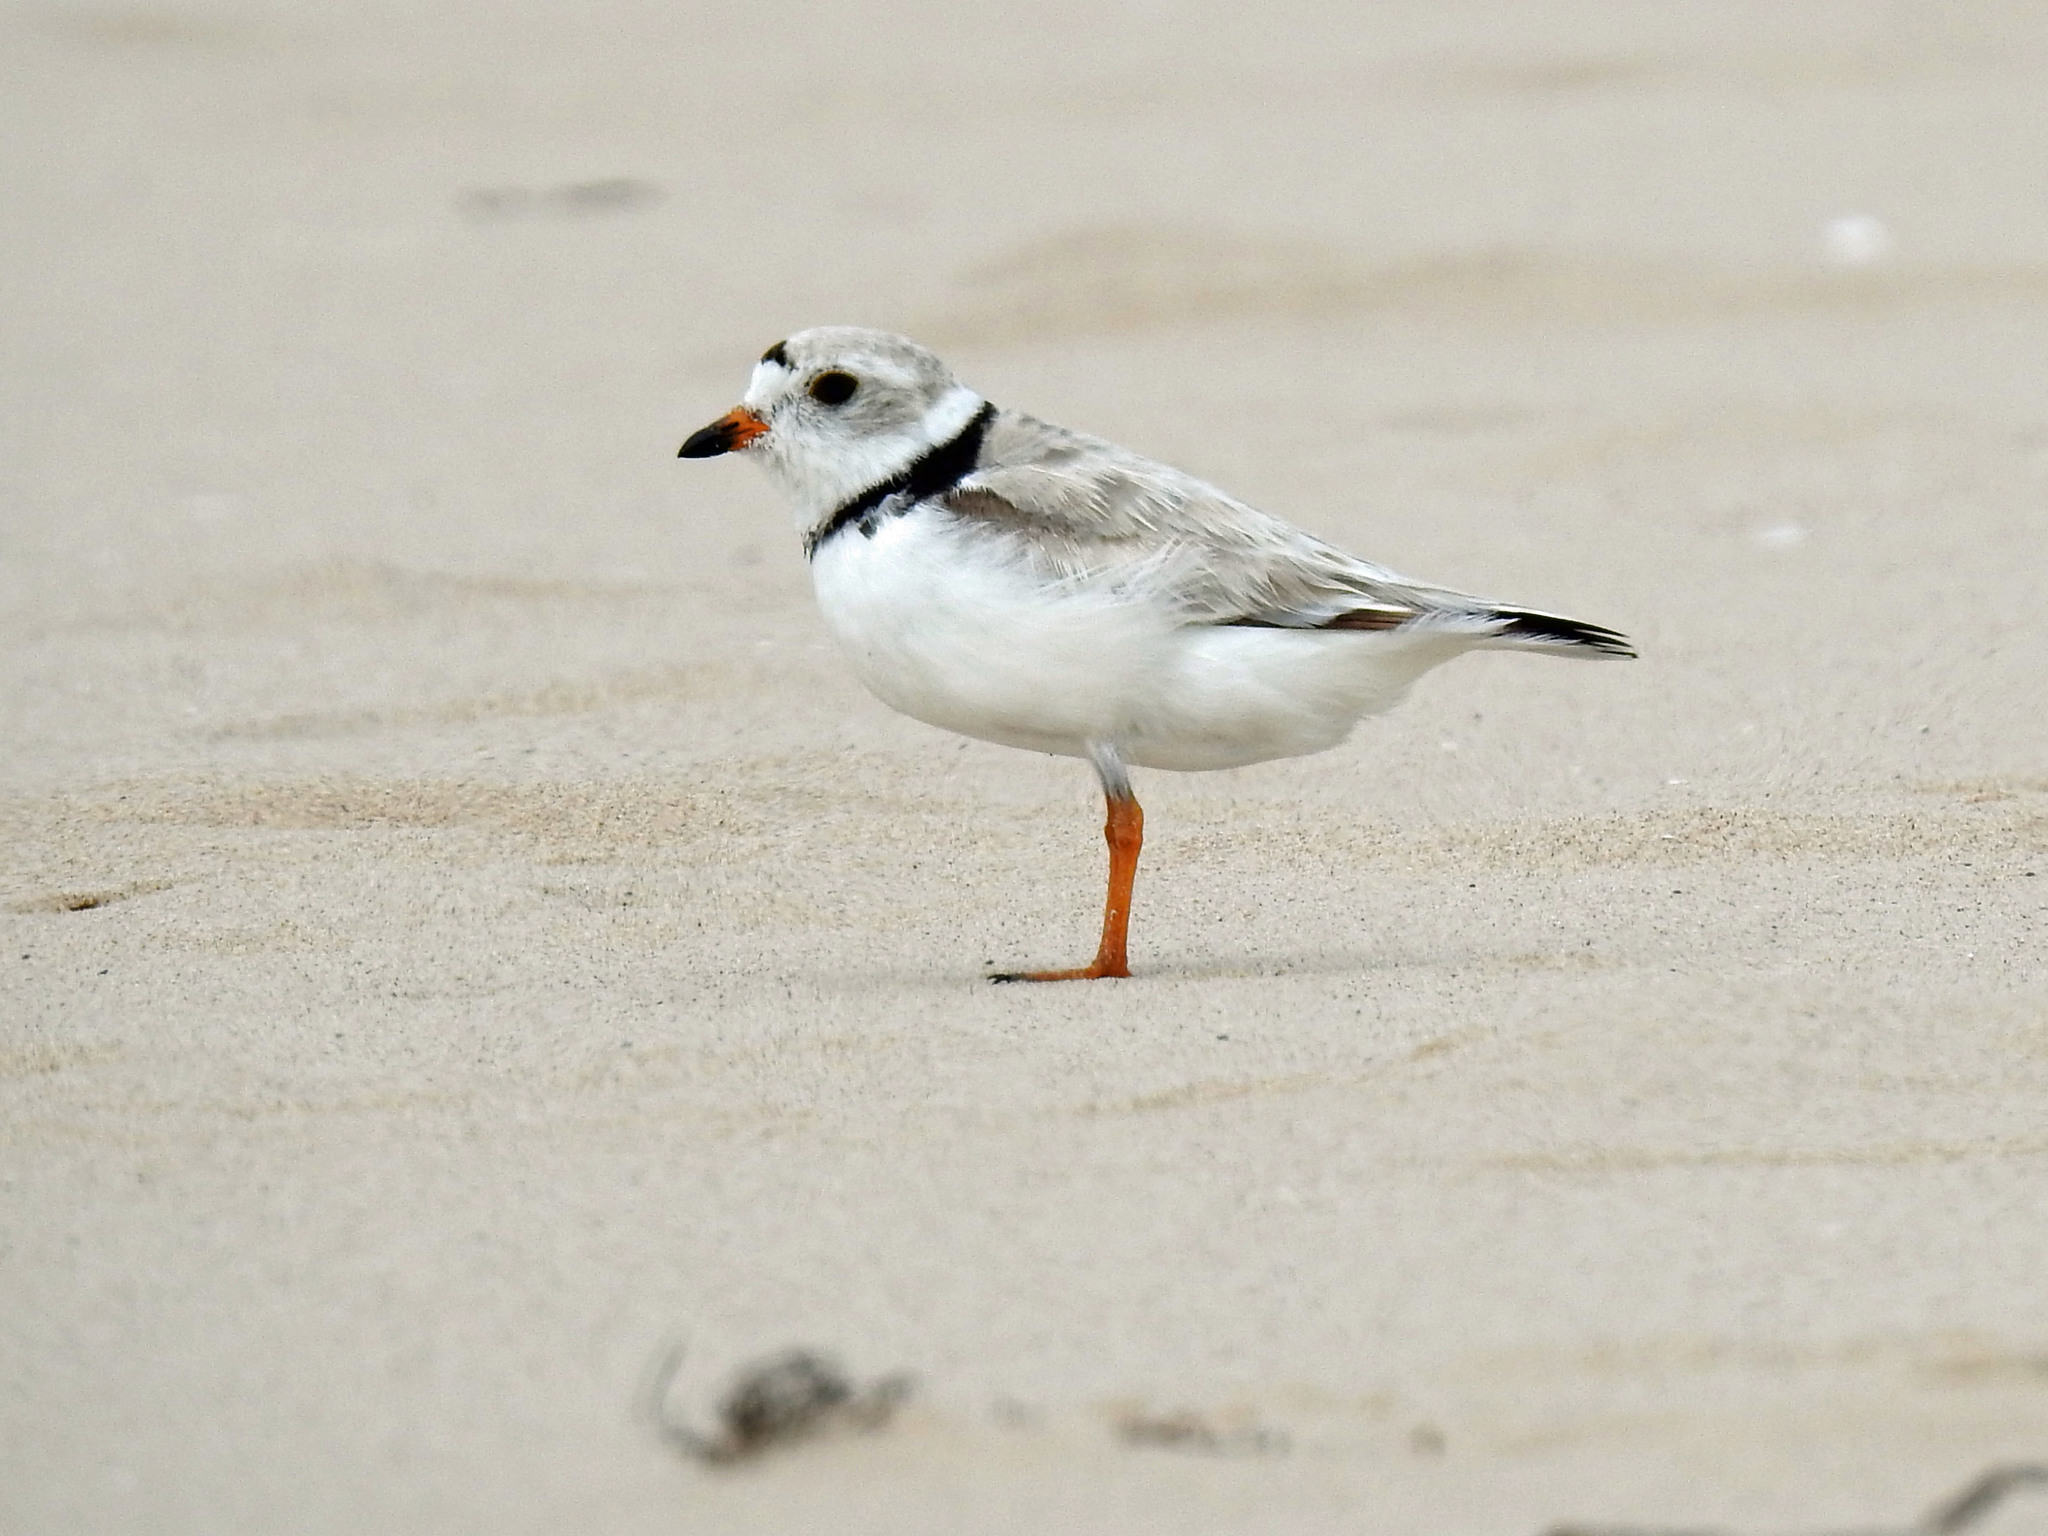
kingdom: Animalia
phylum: Chordata
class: Aves
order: Charadriiformes
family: Charadriidae
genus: Charadrius
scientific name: Charadrius melodus
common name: Piping plover
